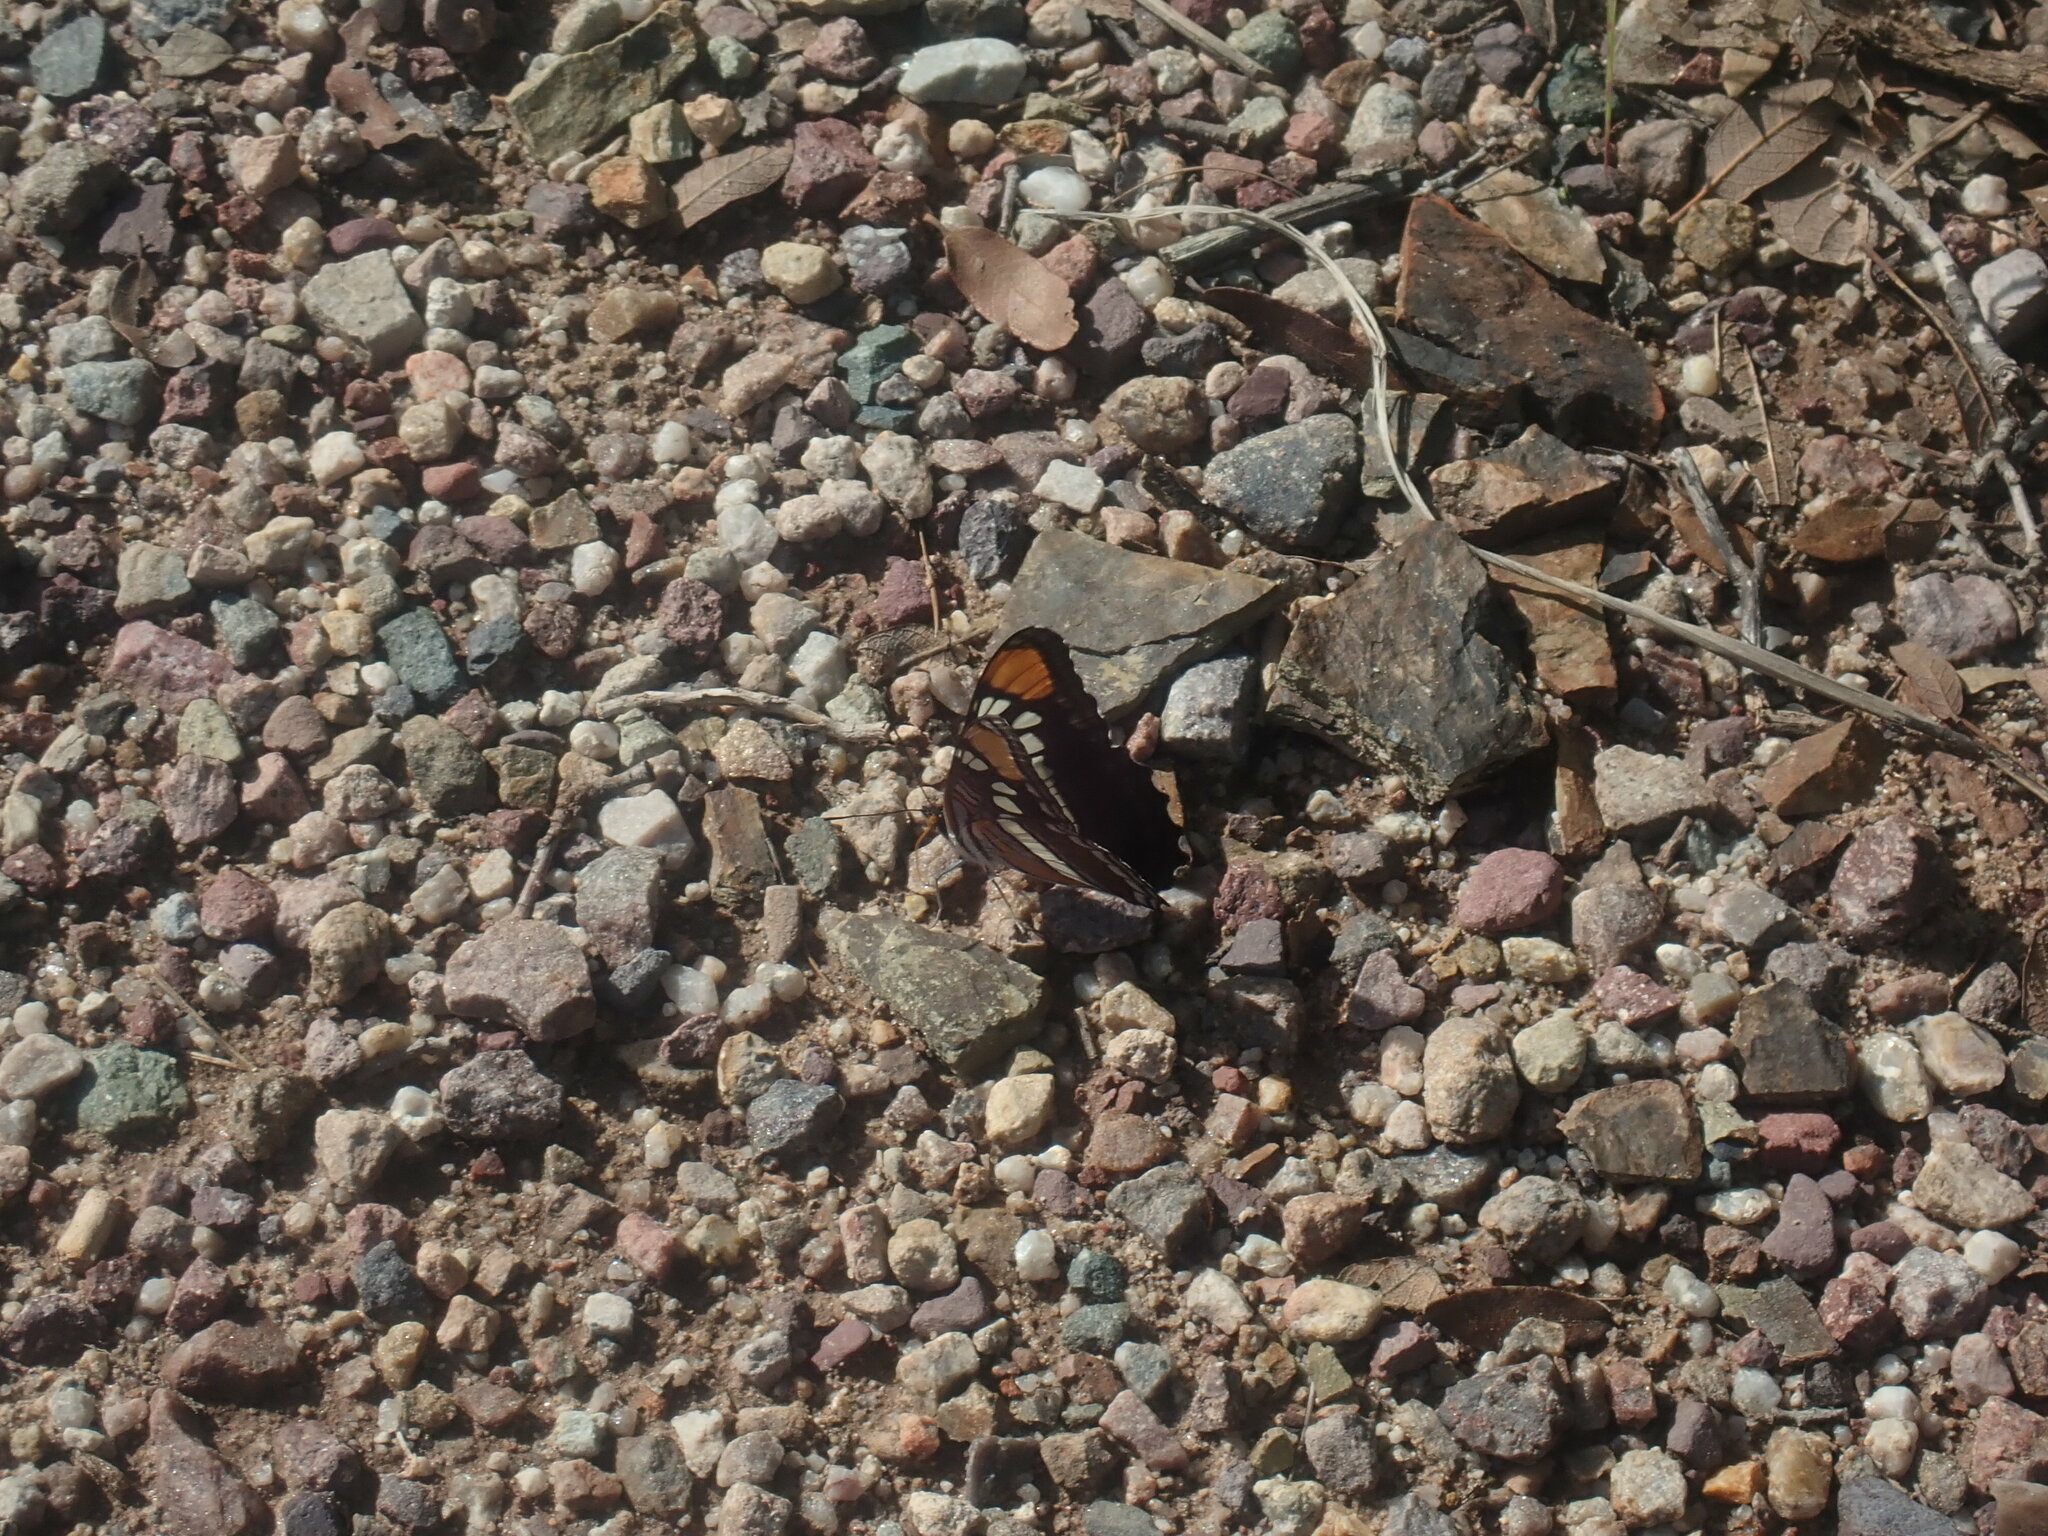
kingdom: Animalia
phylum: Arthropoda
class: Insecta
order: Lepidoptera
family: Nymphalidae
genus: Limenitis
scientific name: Limenitis bredowii
